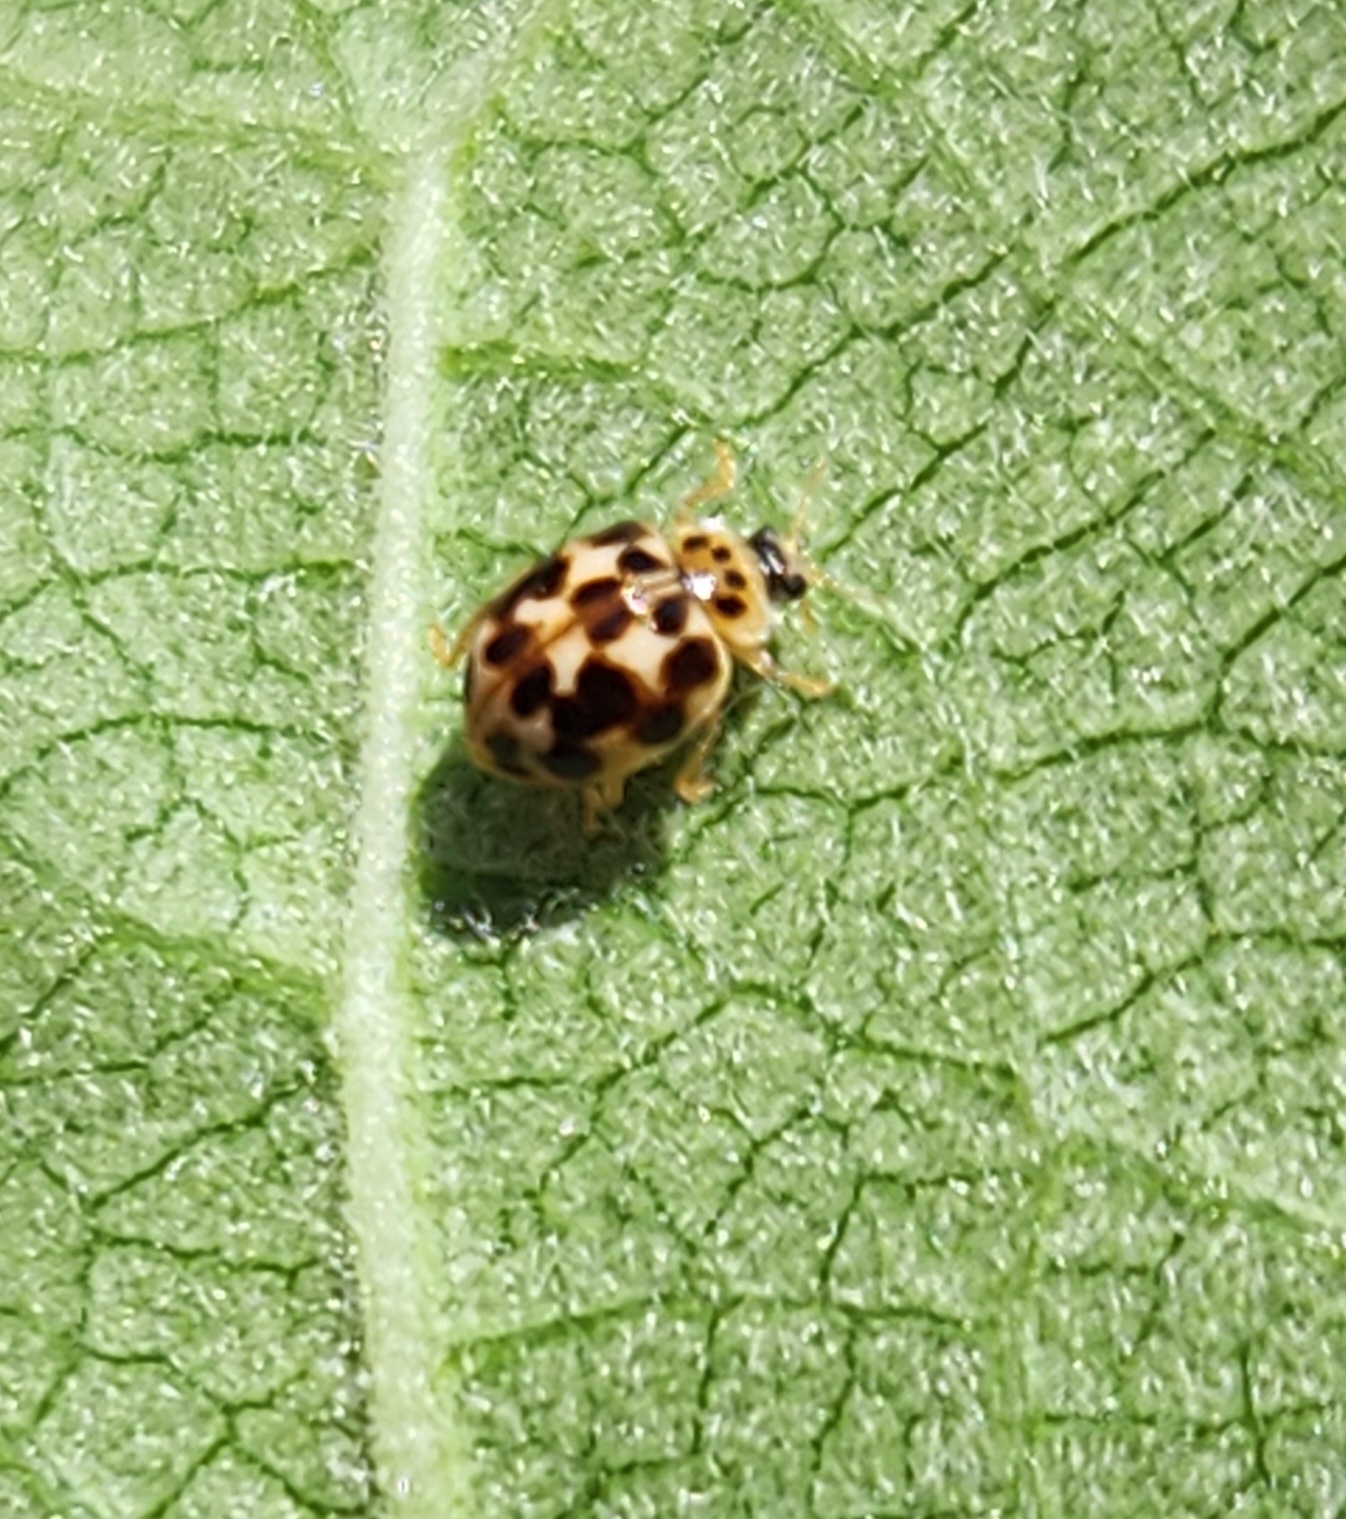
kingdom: Animalia
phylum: Arthropoda
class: Insecta
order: Coleoptera
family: Coccinellidae
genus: Psyllobora
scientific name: Psyllobora vigintimaculata
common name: Ladybird beetle
